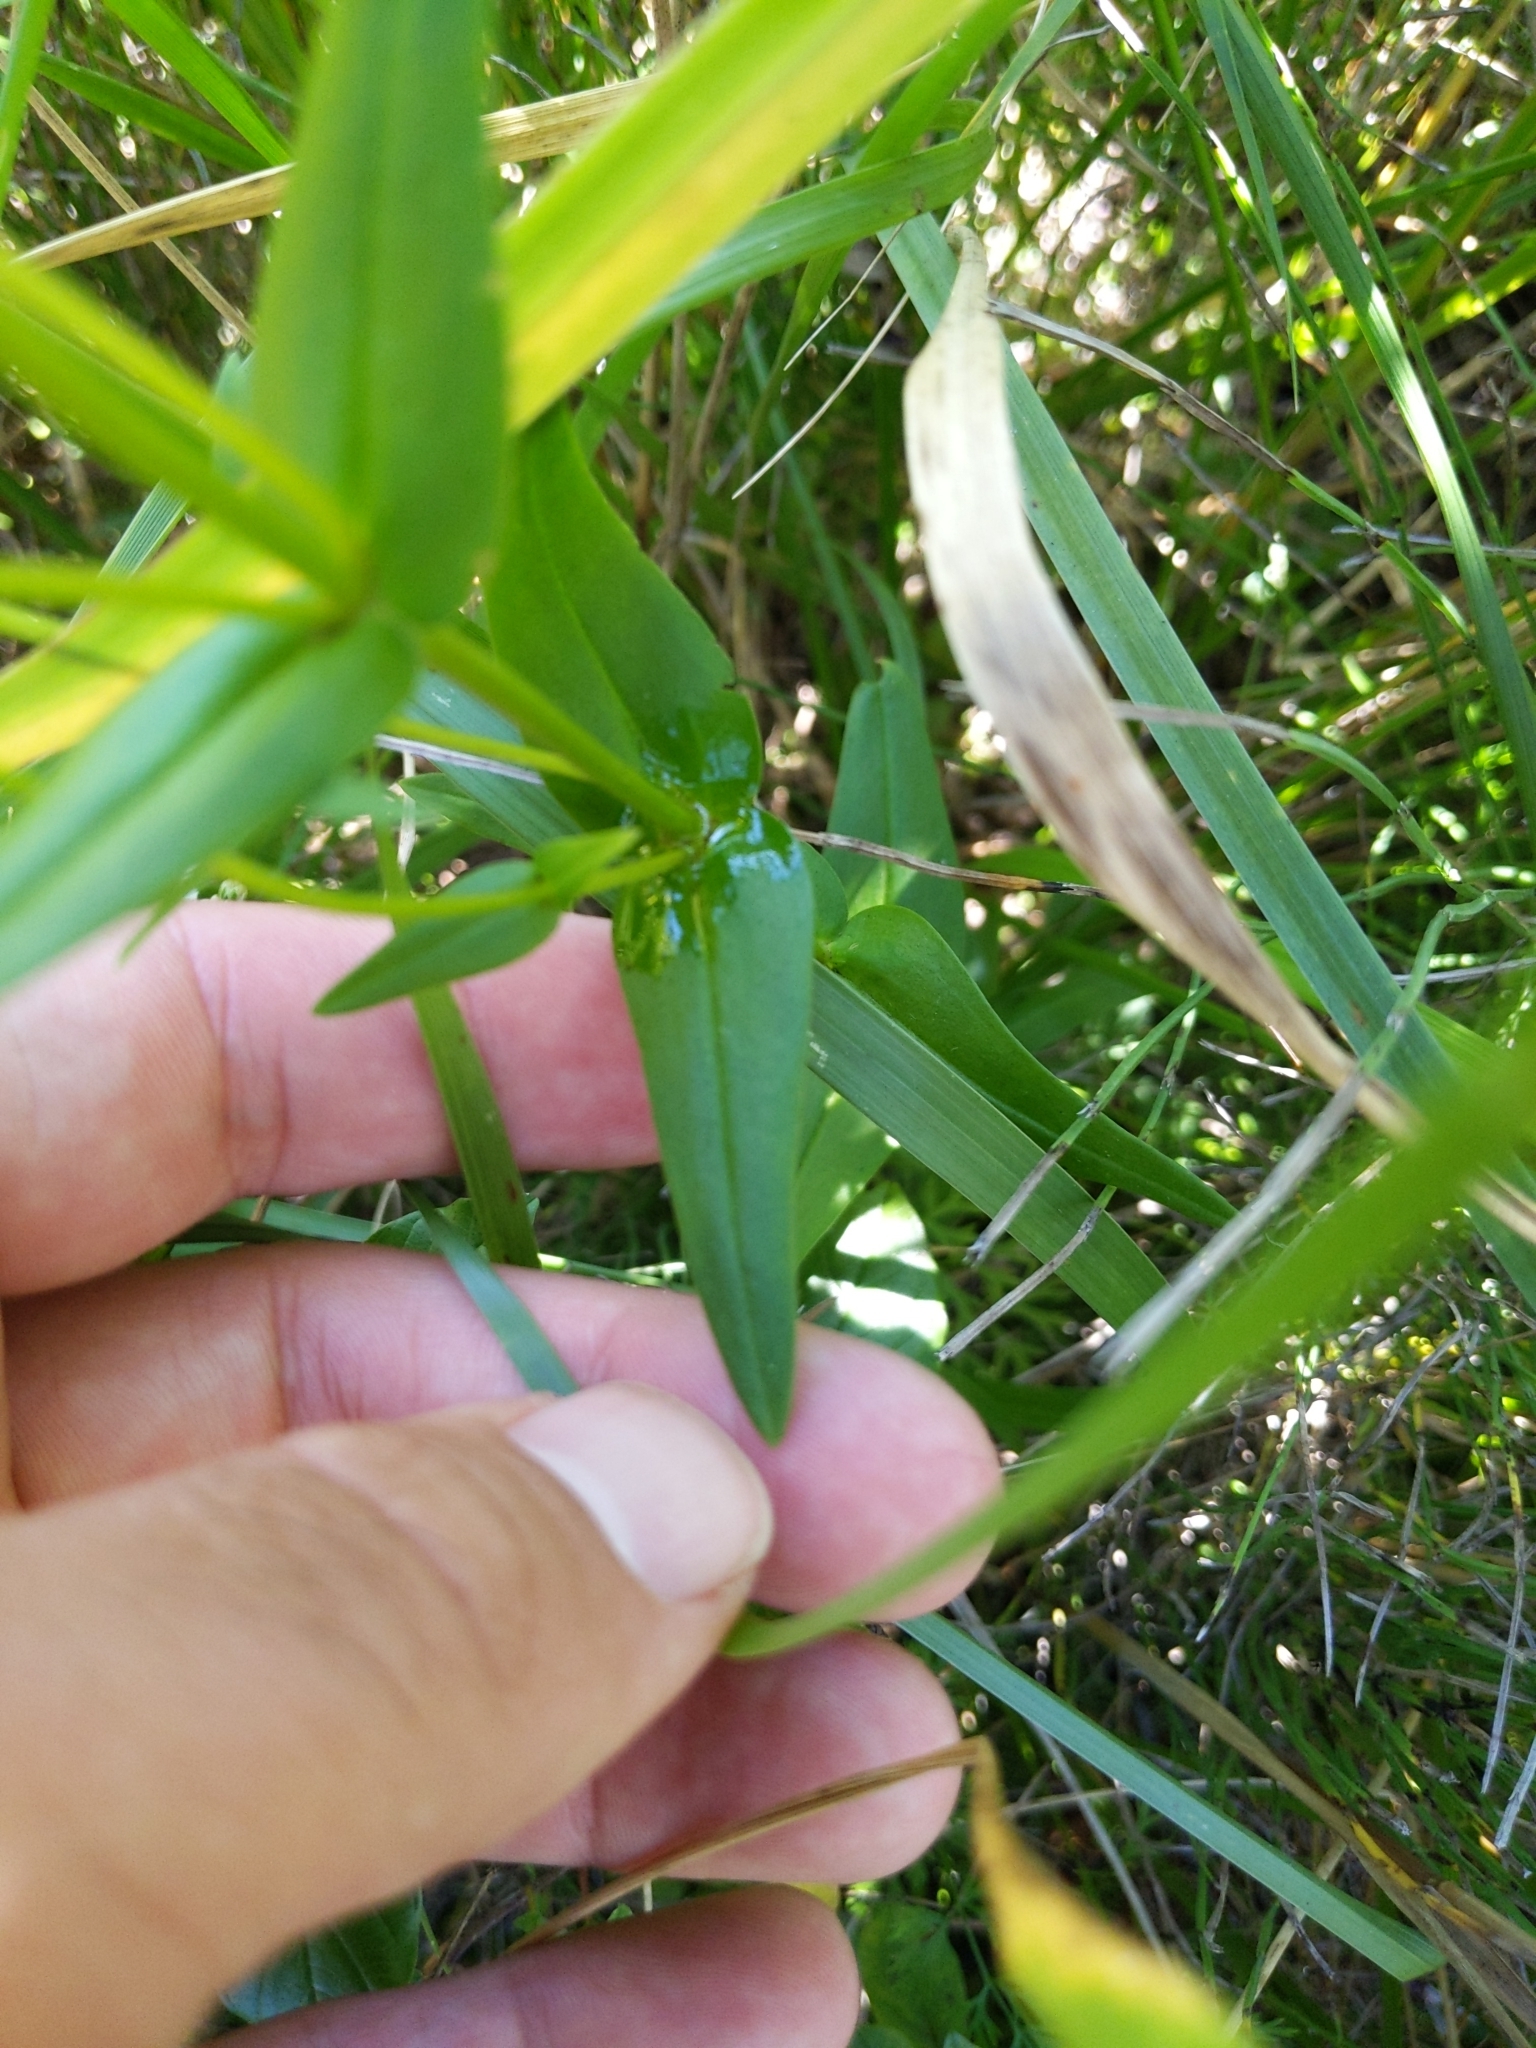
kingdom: Plantae
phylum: Tracheophyta
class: Magnoliopsida
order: Gentianales
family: Gentianaceae
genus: Gentianopsis
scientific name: Gentianopsis crinita
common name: Fringed-gentian
